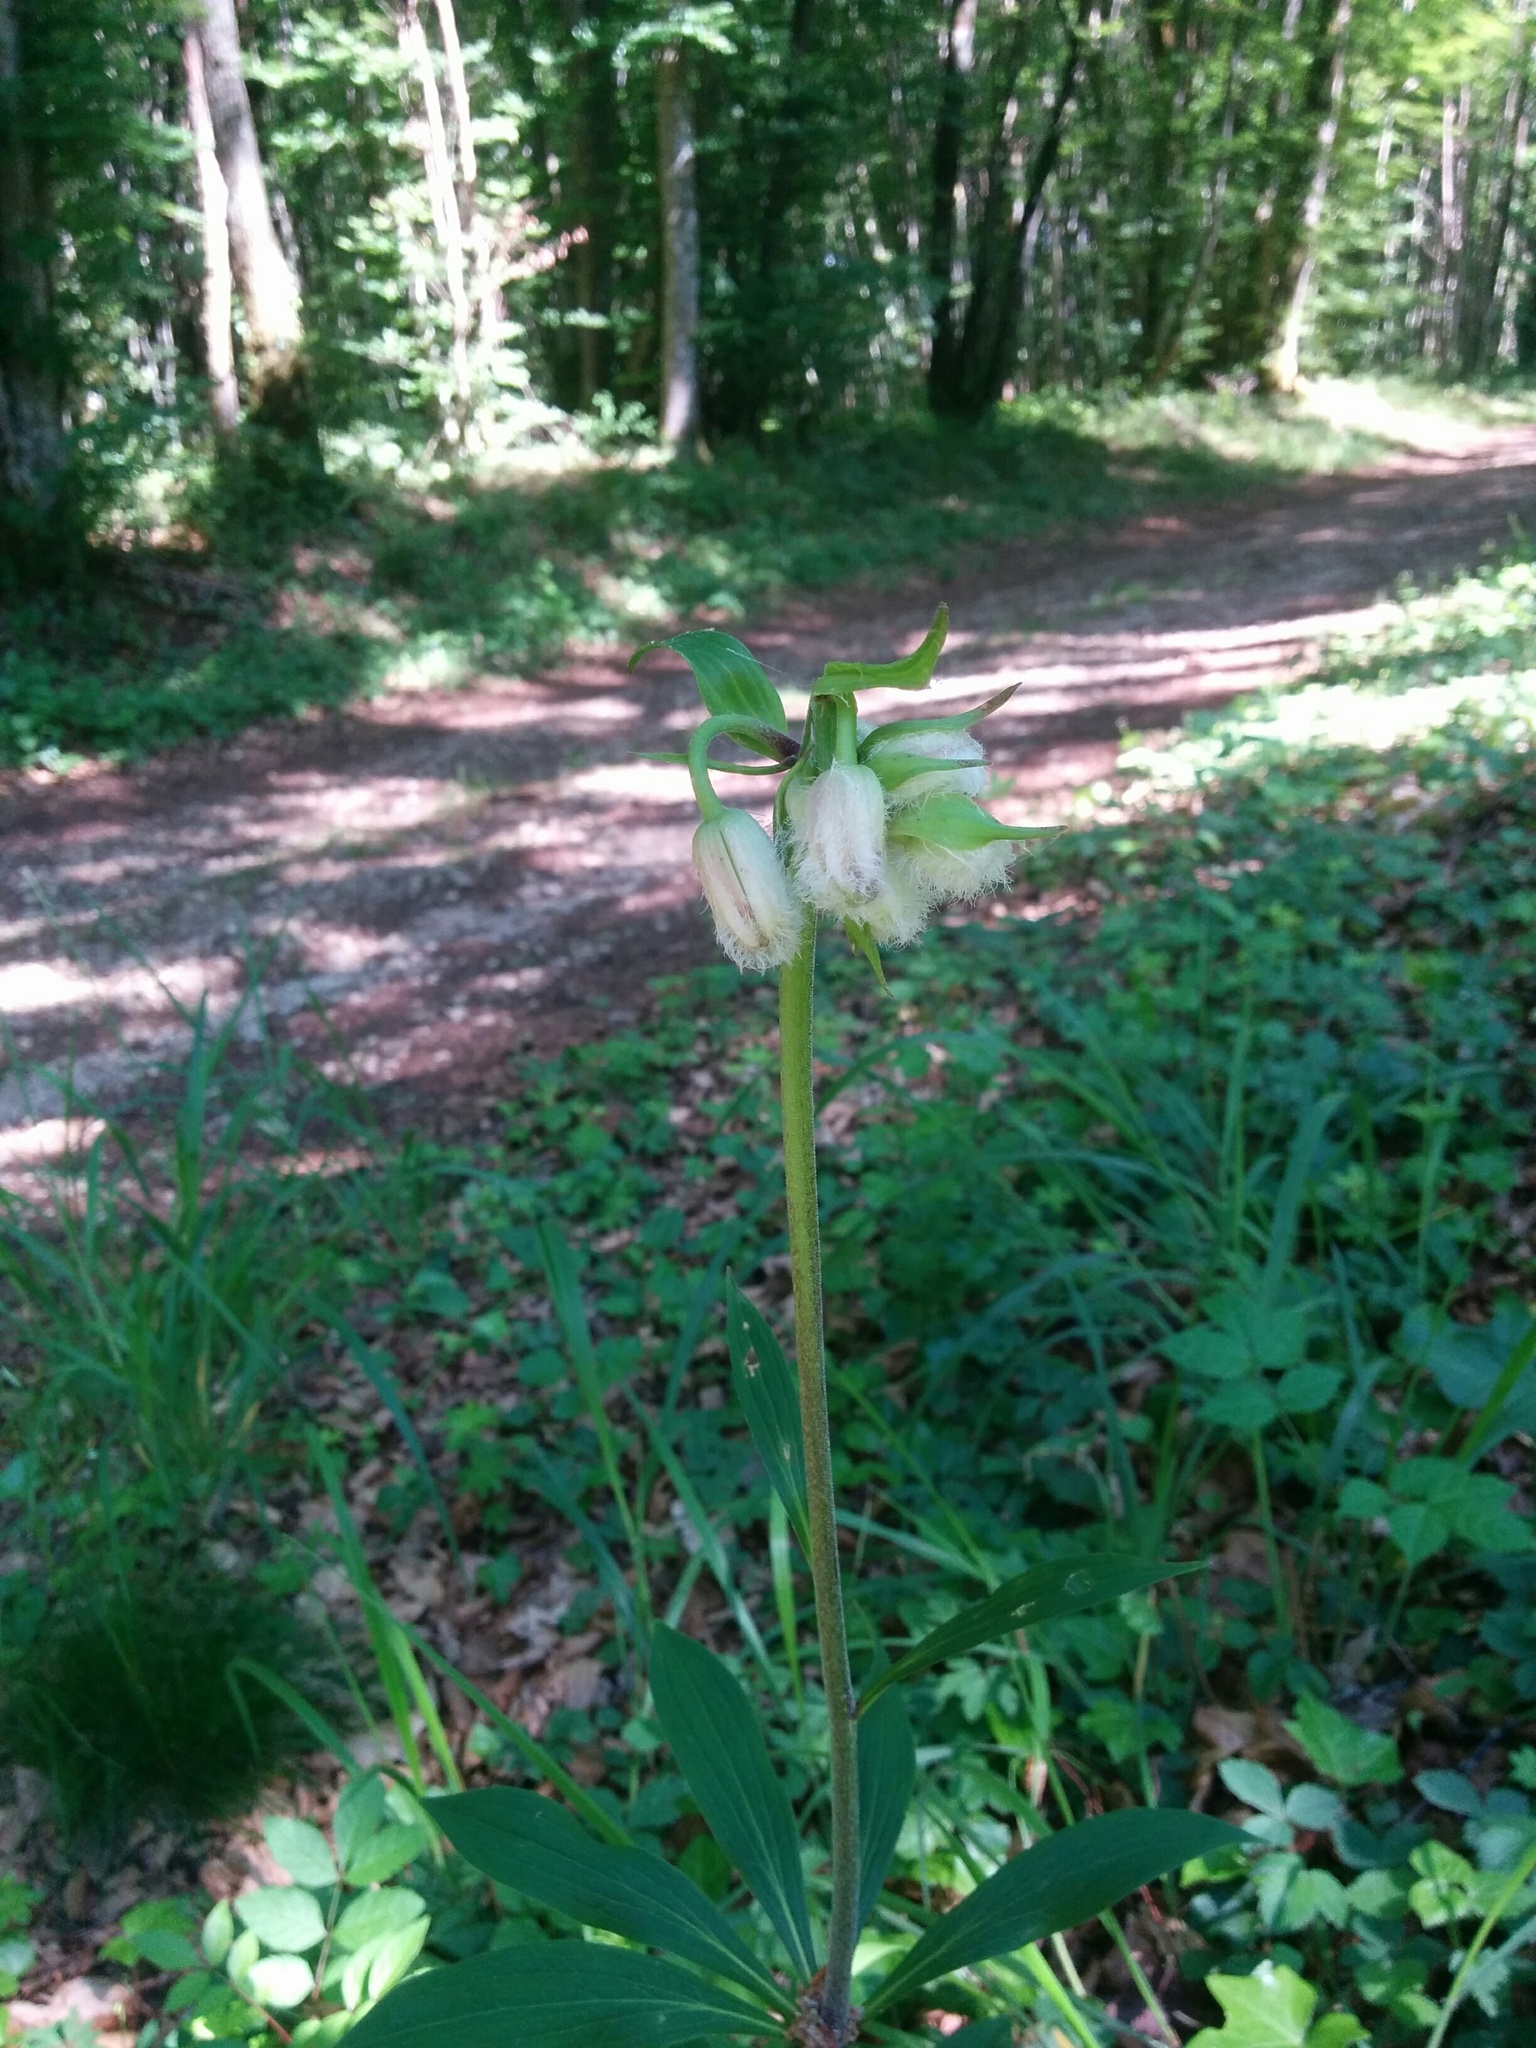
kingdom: Plantae
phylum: Tracheophyta
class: Liliopsida
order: Liliales
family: Liliaceae
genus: Lilium
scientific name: Lilium martagon
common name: Martagon lily
